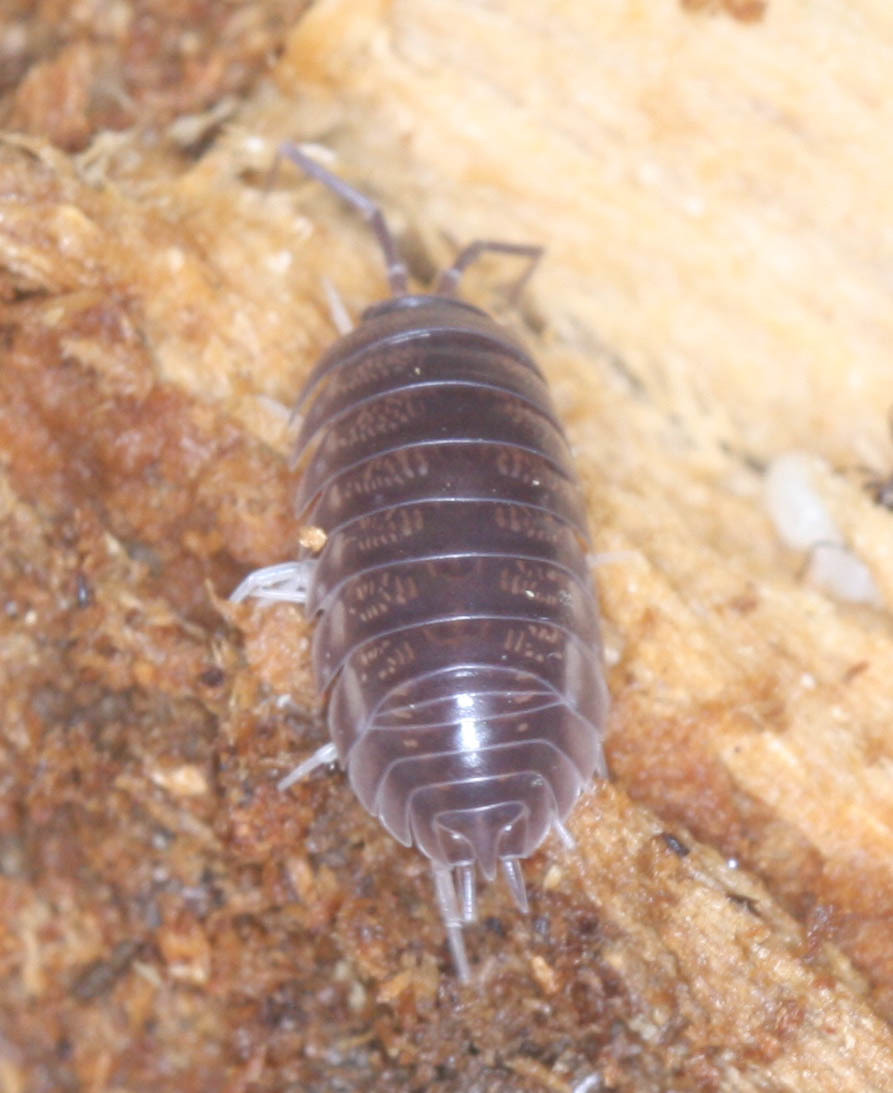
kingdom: Animalia
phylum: Arthropoda
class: Malacostraca
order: Isopoda
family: Cylisticidae
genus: Cylisticus
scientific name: Cylisticus convexus
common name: Curly woodlouse
